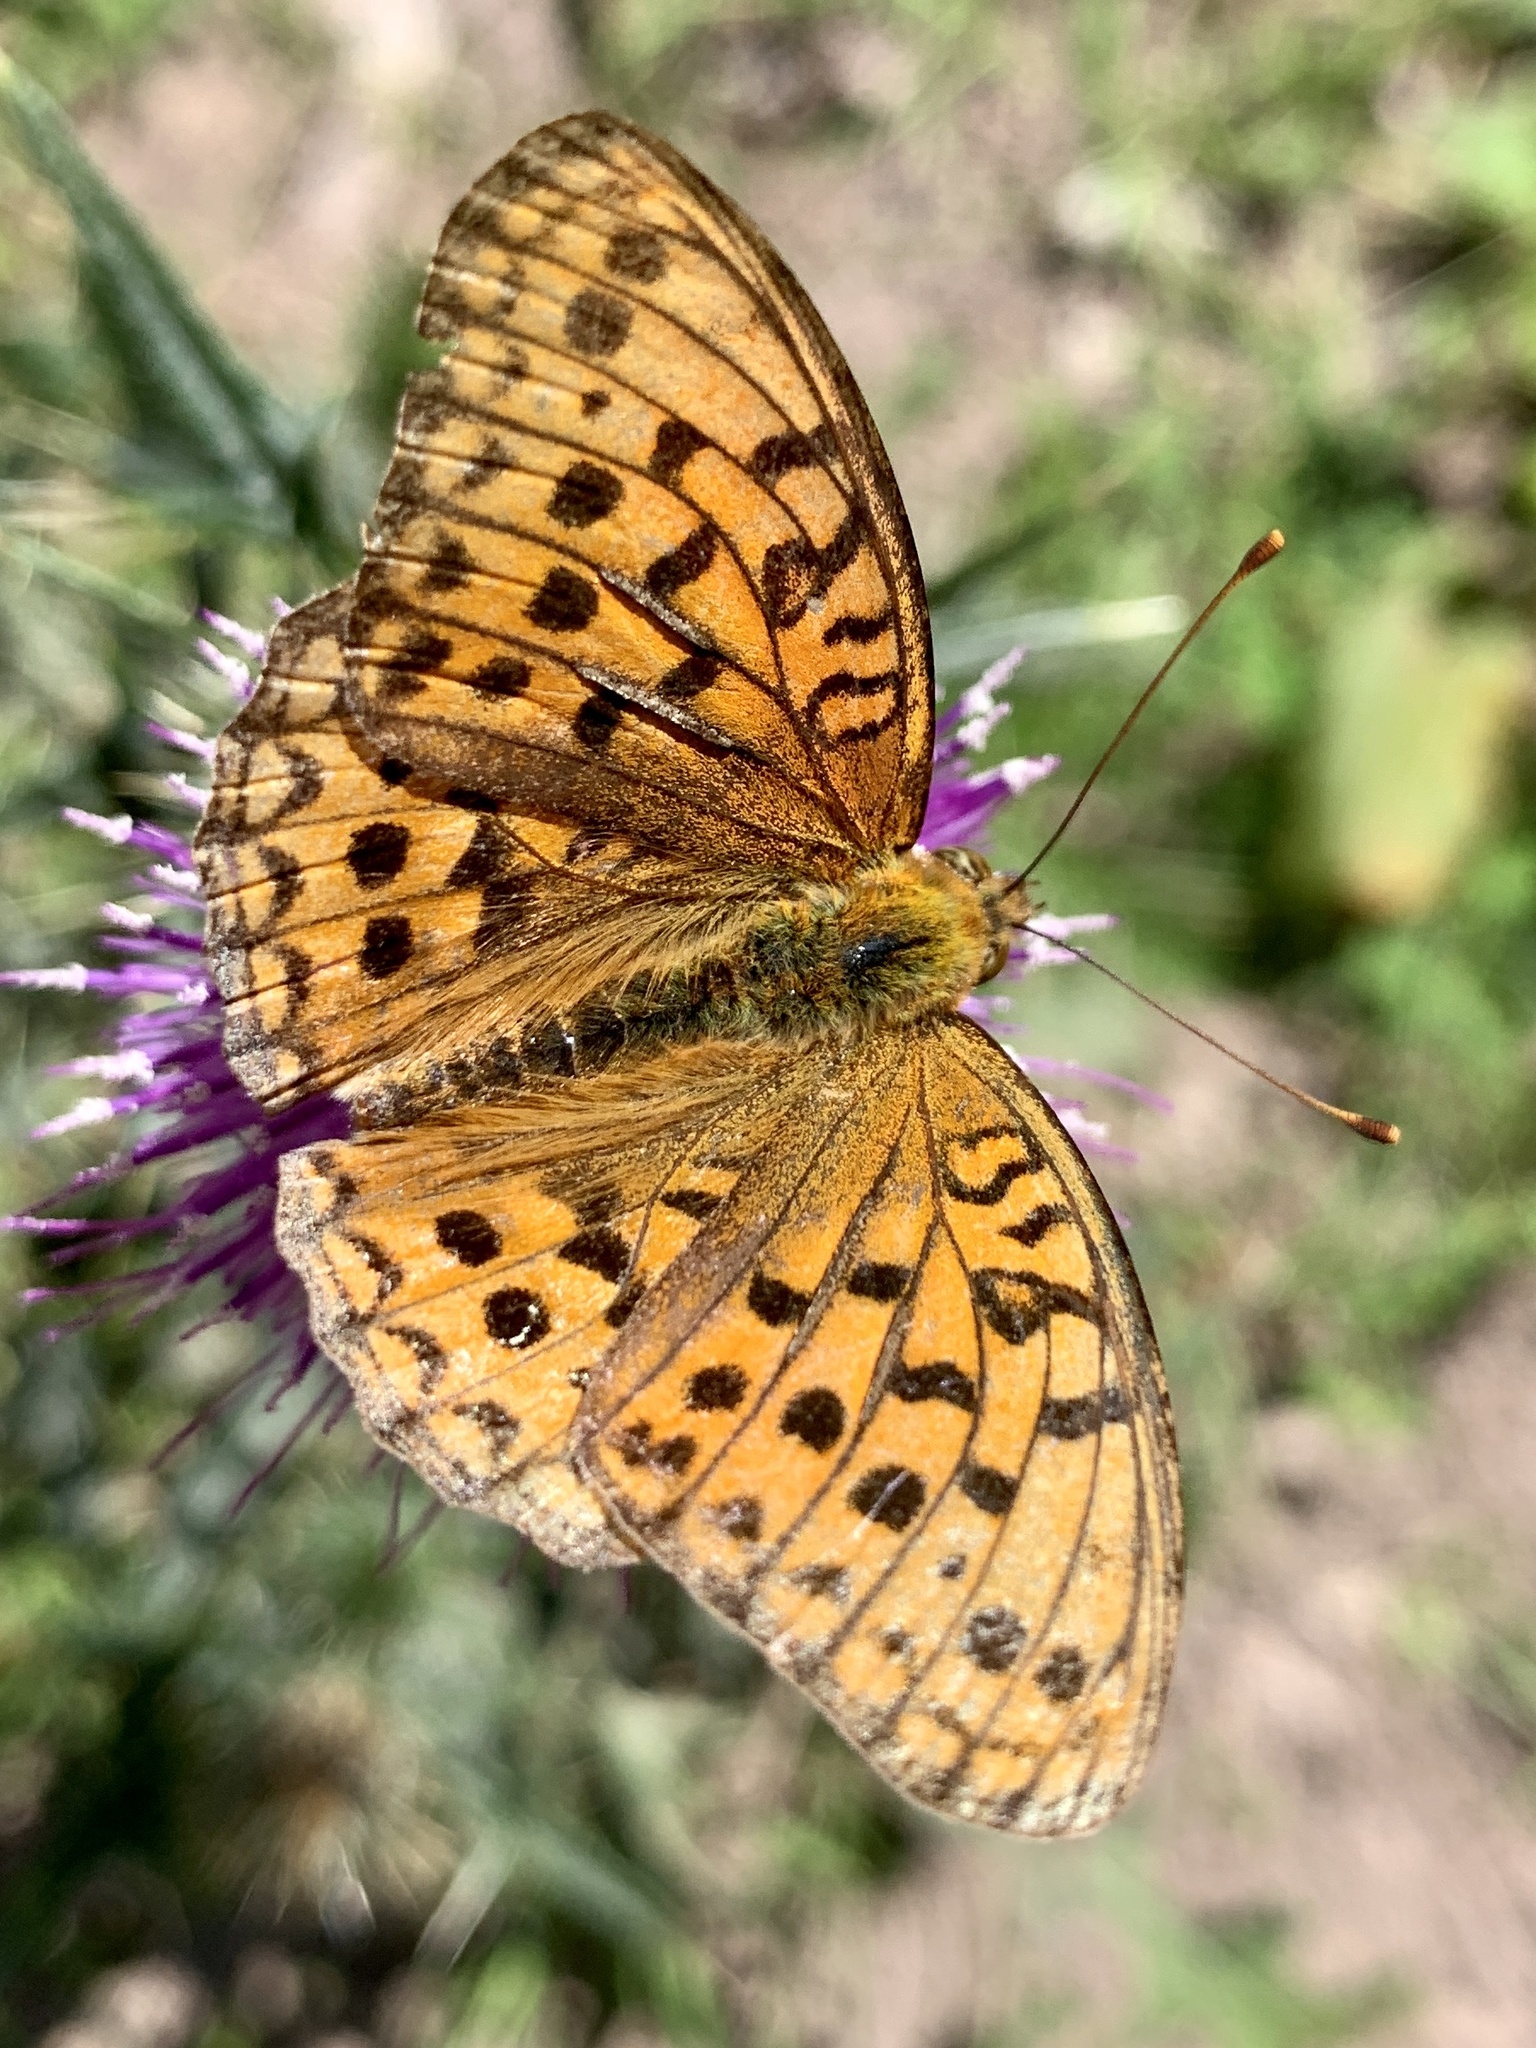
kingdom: Animalia
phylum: Arthropoda
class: Insecta
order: Lepidoptera
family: Nymphalidae
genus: Fabriciana
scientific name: Fabriciana adippe
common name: High brown fritillary
